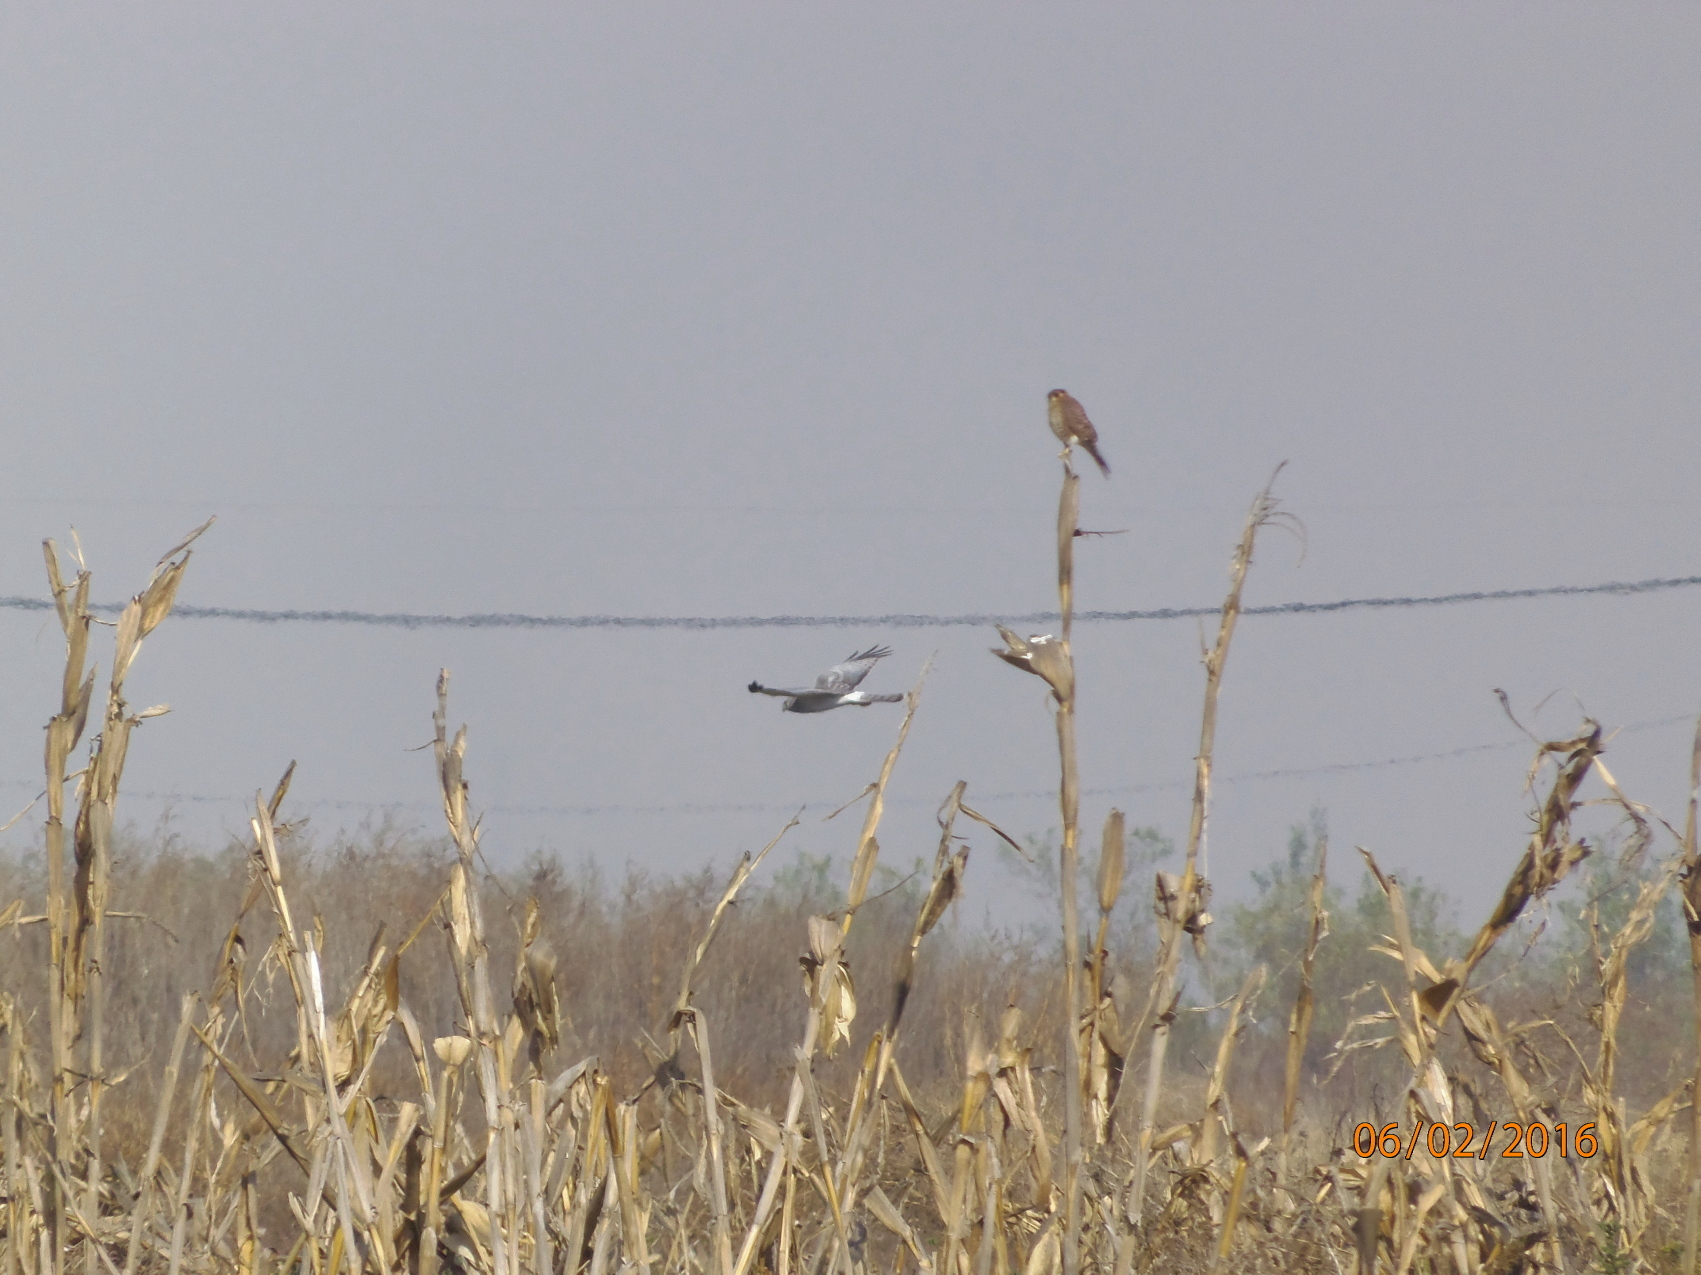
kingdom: Animalia
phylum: Chordata
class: Aves
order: Accipitriformes
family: Accipitridae
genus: Circus
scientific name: Circus cyaneus
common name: Hen harrier
